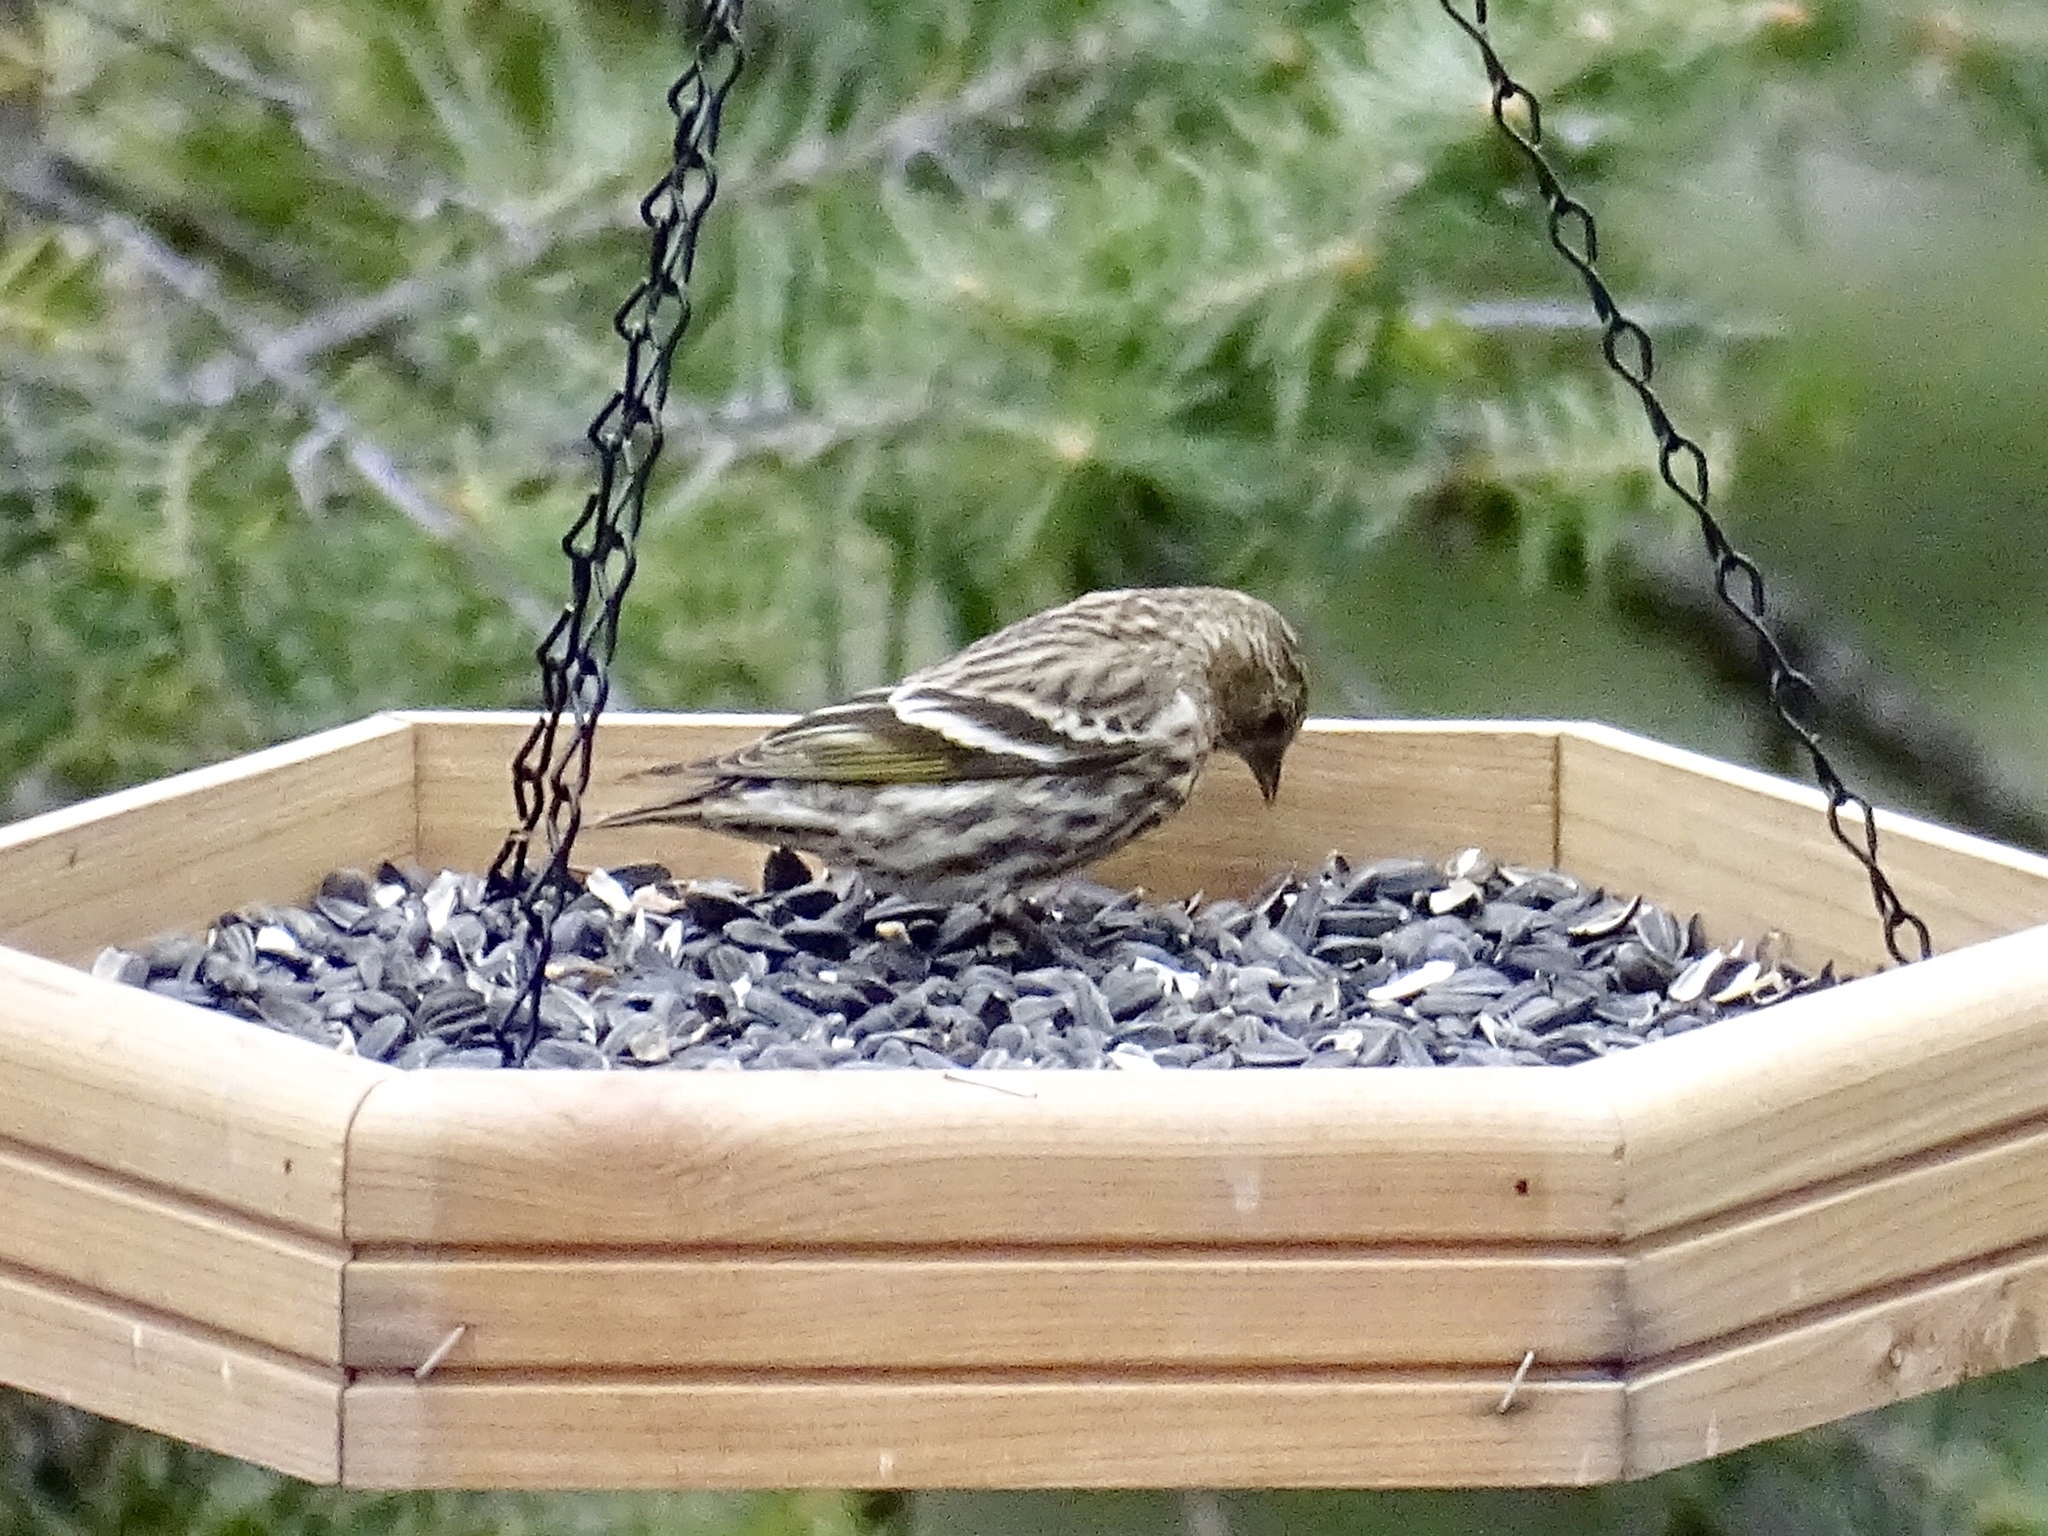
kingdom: Animalia
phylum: Chordata
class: Aves
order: Passeriformes
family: Fringillidae
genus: Spinus
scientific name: Spinus pinus
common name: Pine siskin
